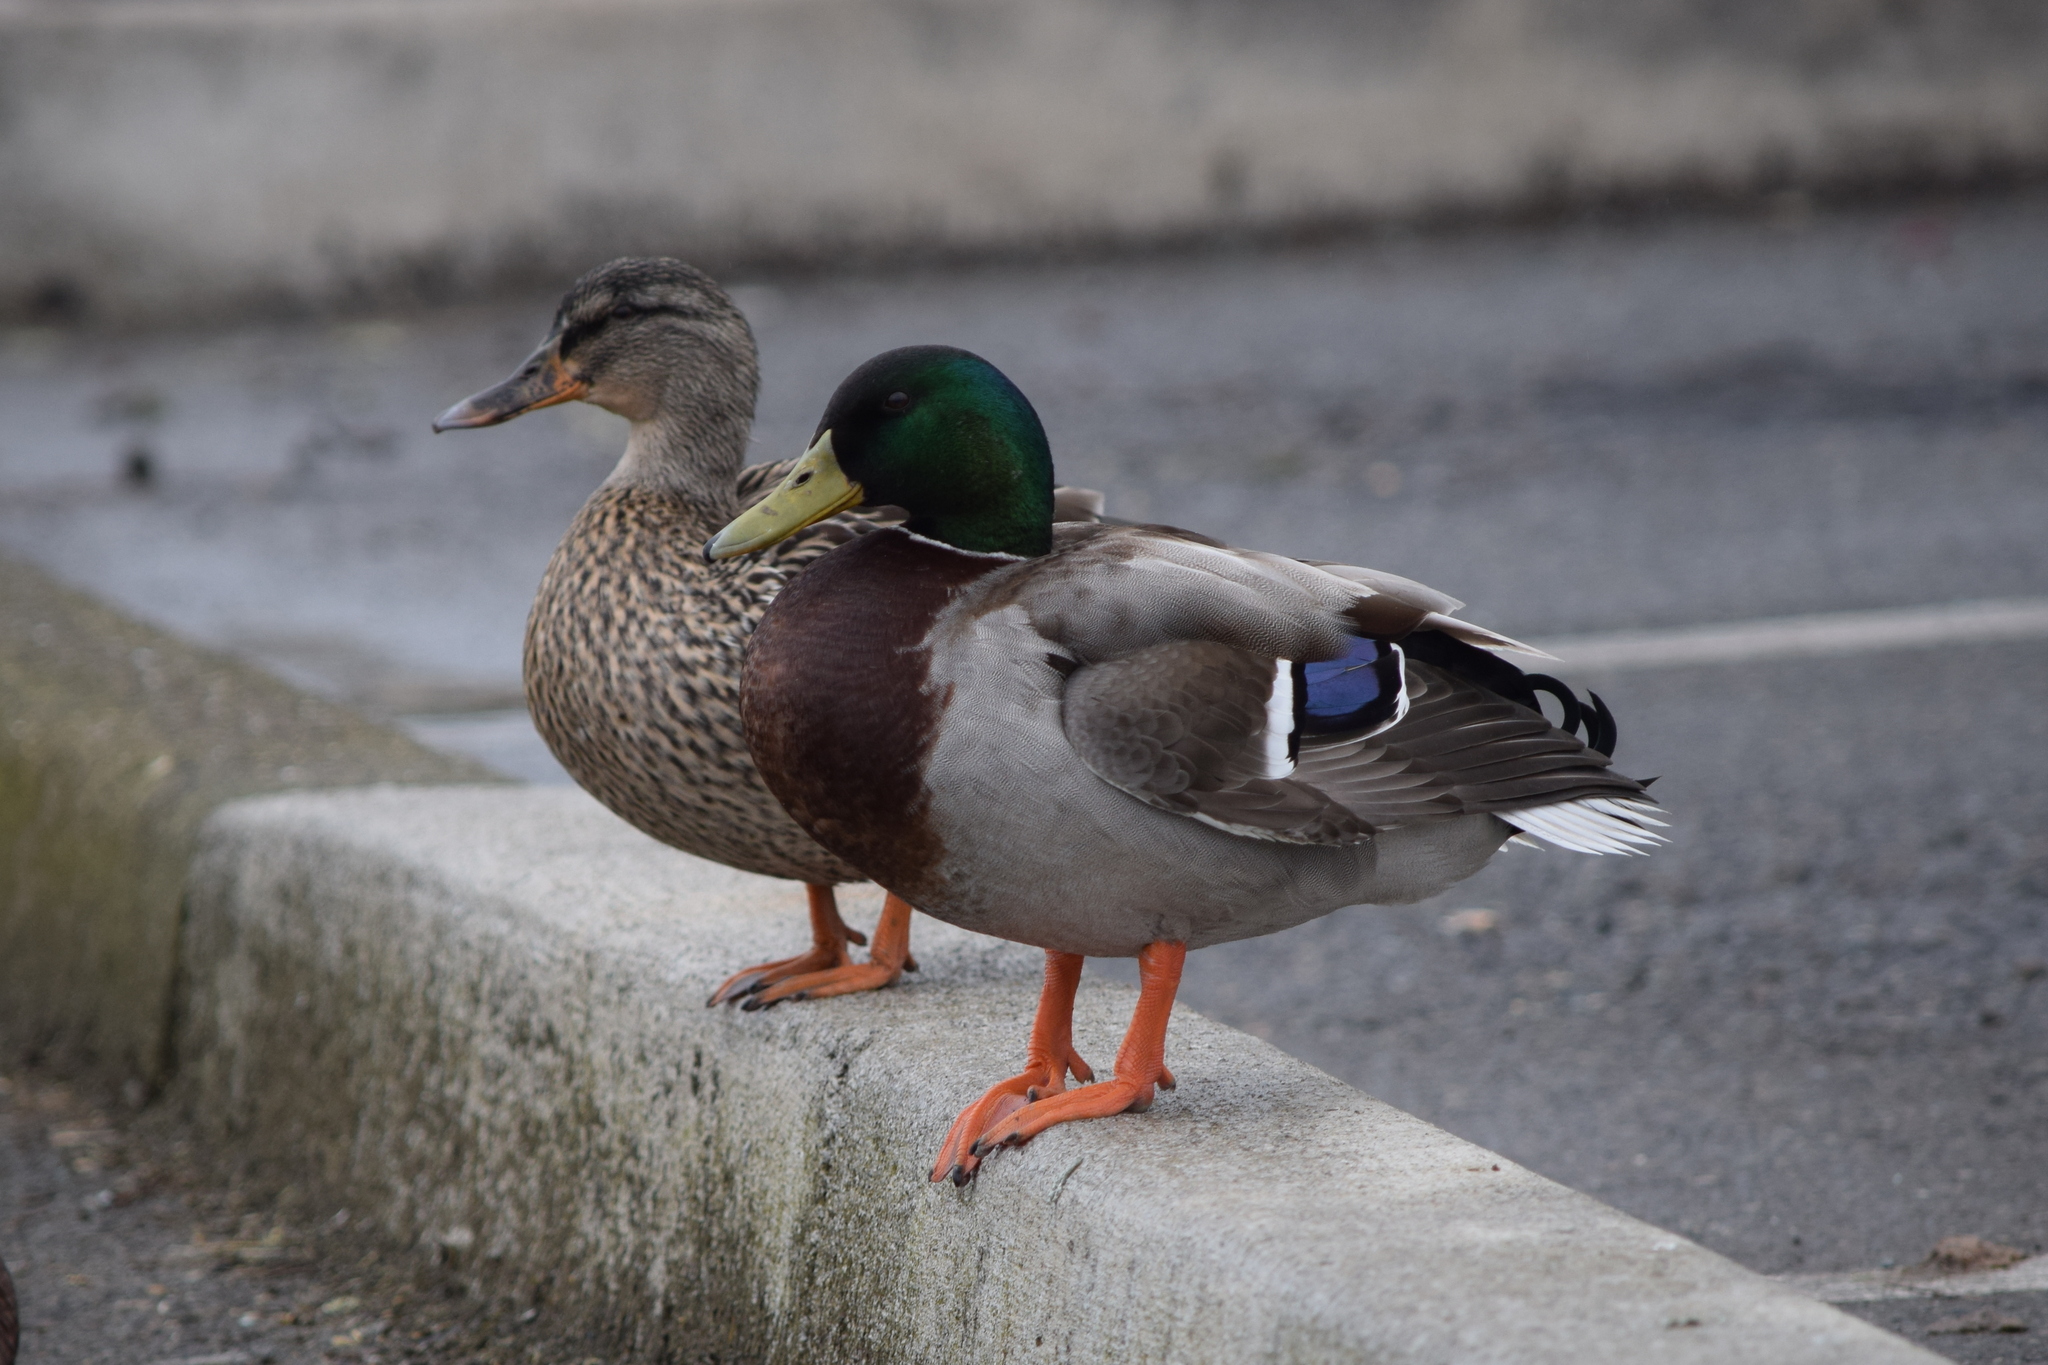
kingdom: Animalia
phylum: Chordata
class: Aves
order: Anseriformes
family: Anatidae
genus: Anas
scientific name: Anas platyrhynchos
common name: Mallard
